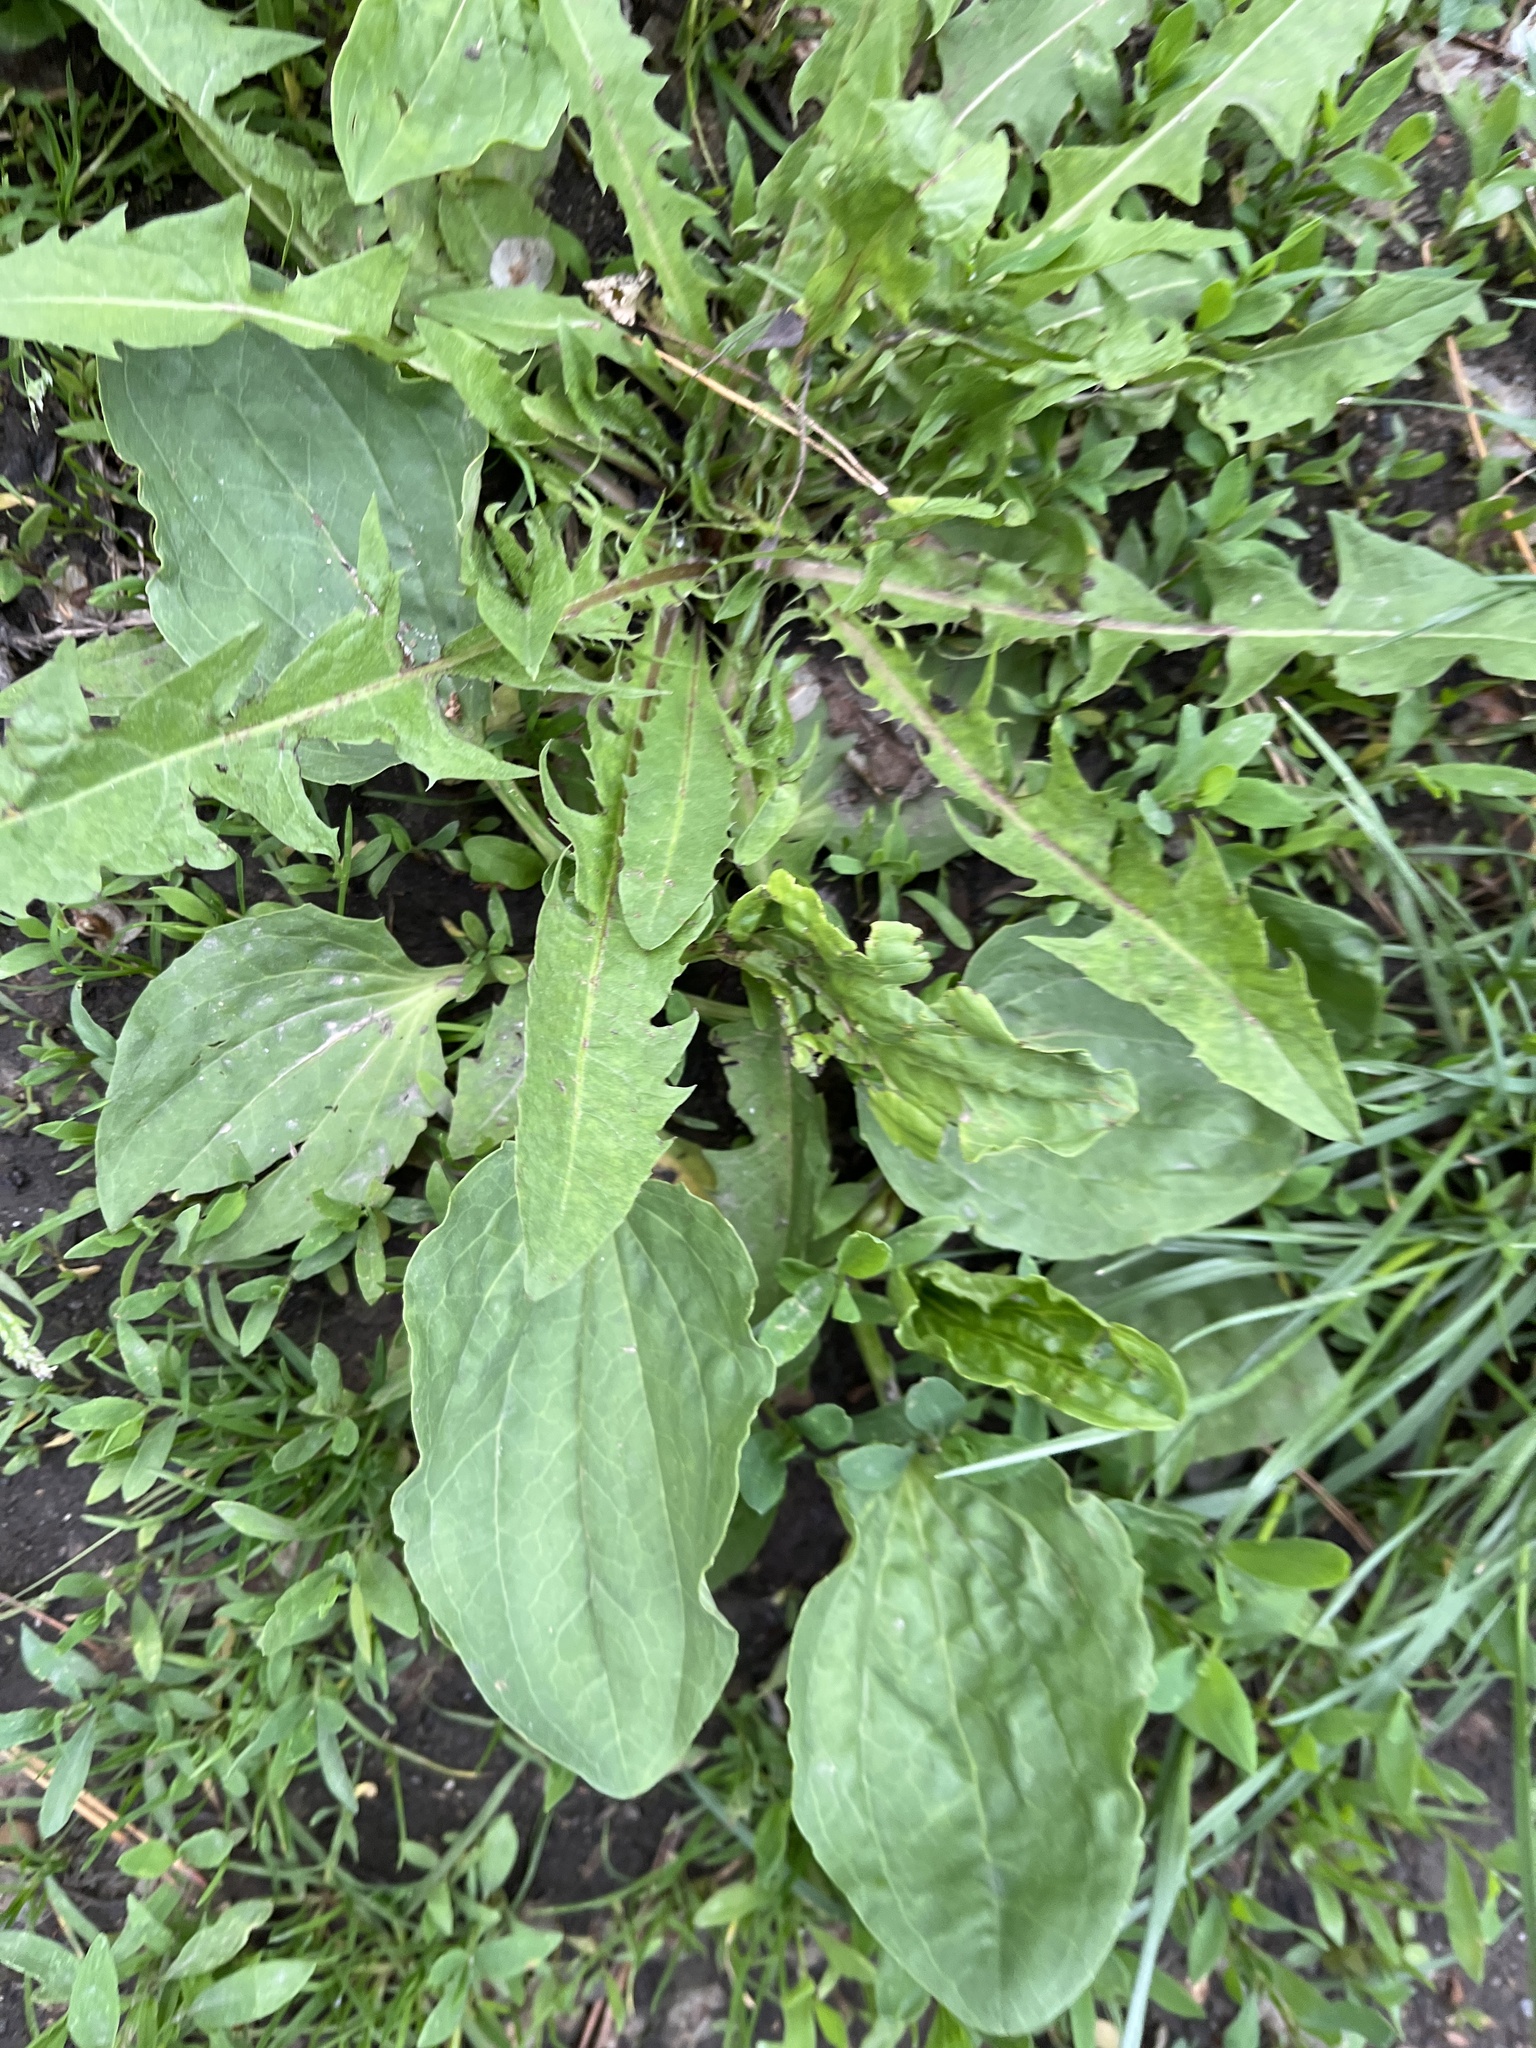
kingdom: Plantae
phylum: Tracheophyta
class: Magnoliopsida
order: Lamiales
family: Plantaginaceae
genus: Plantago
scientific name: Plantago major
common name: Common plantain
